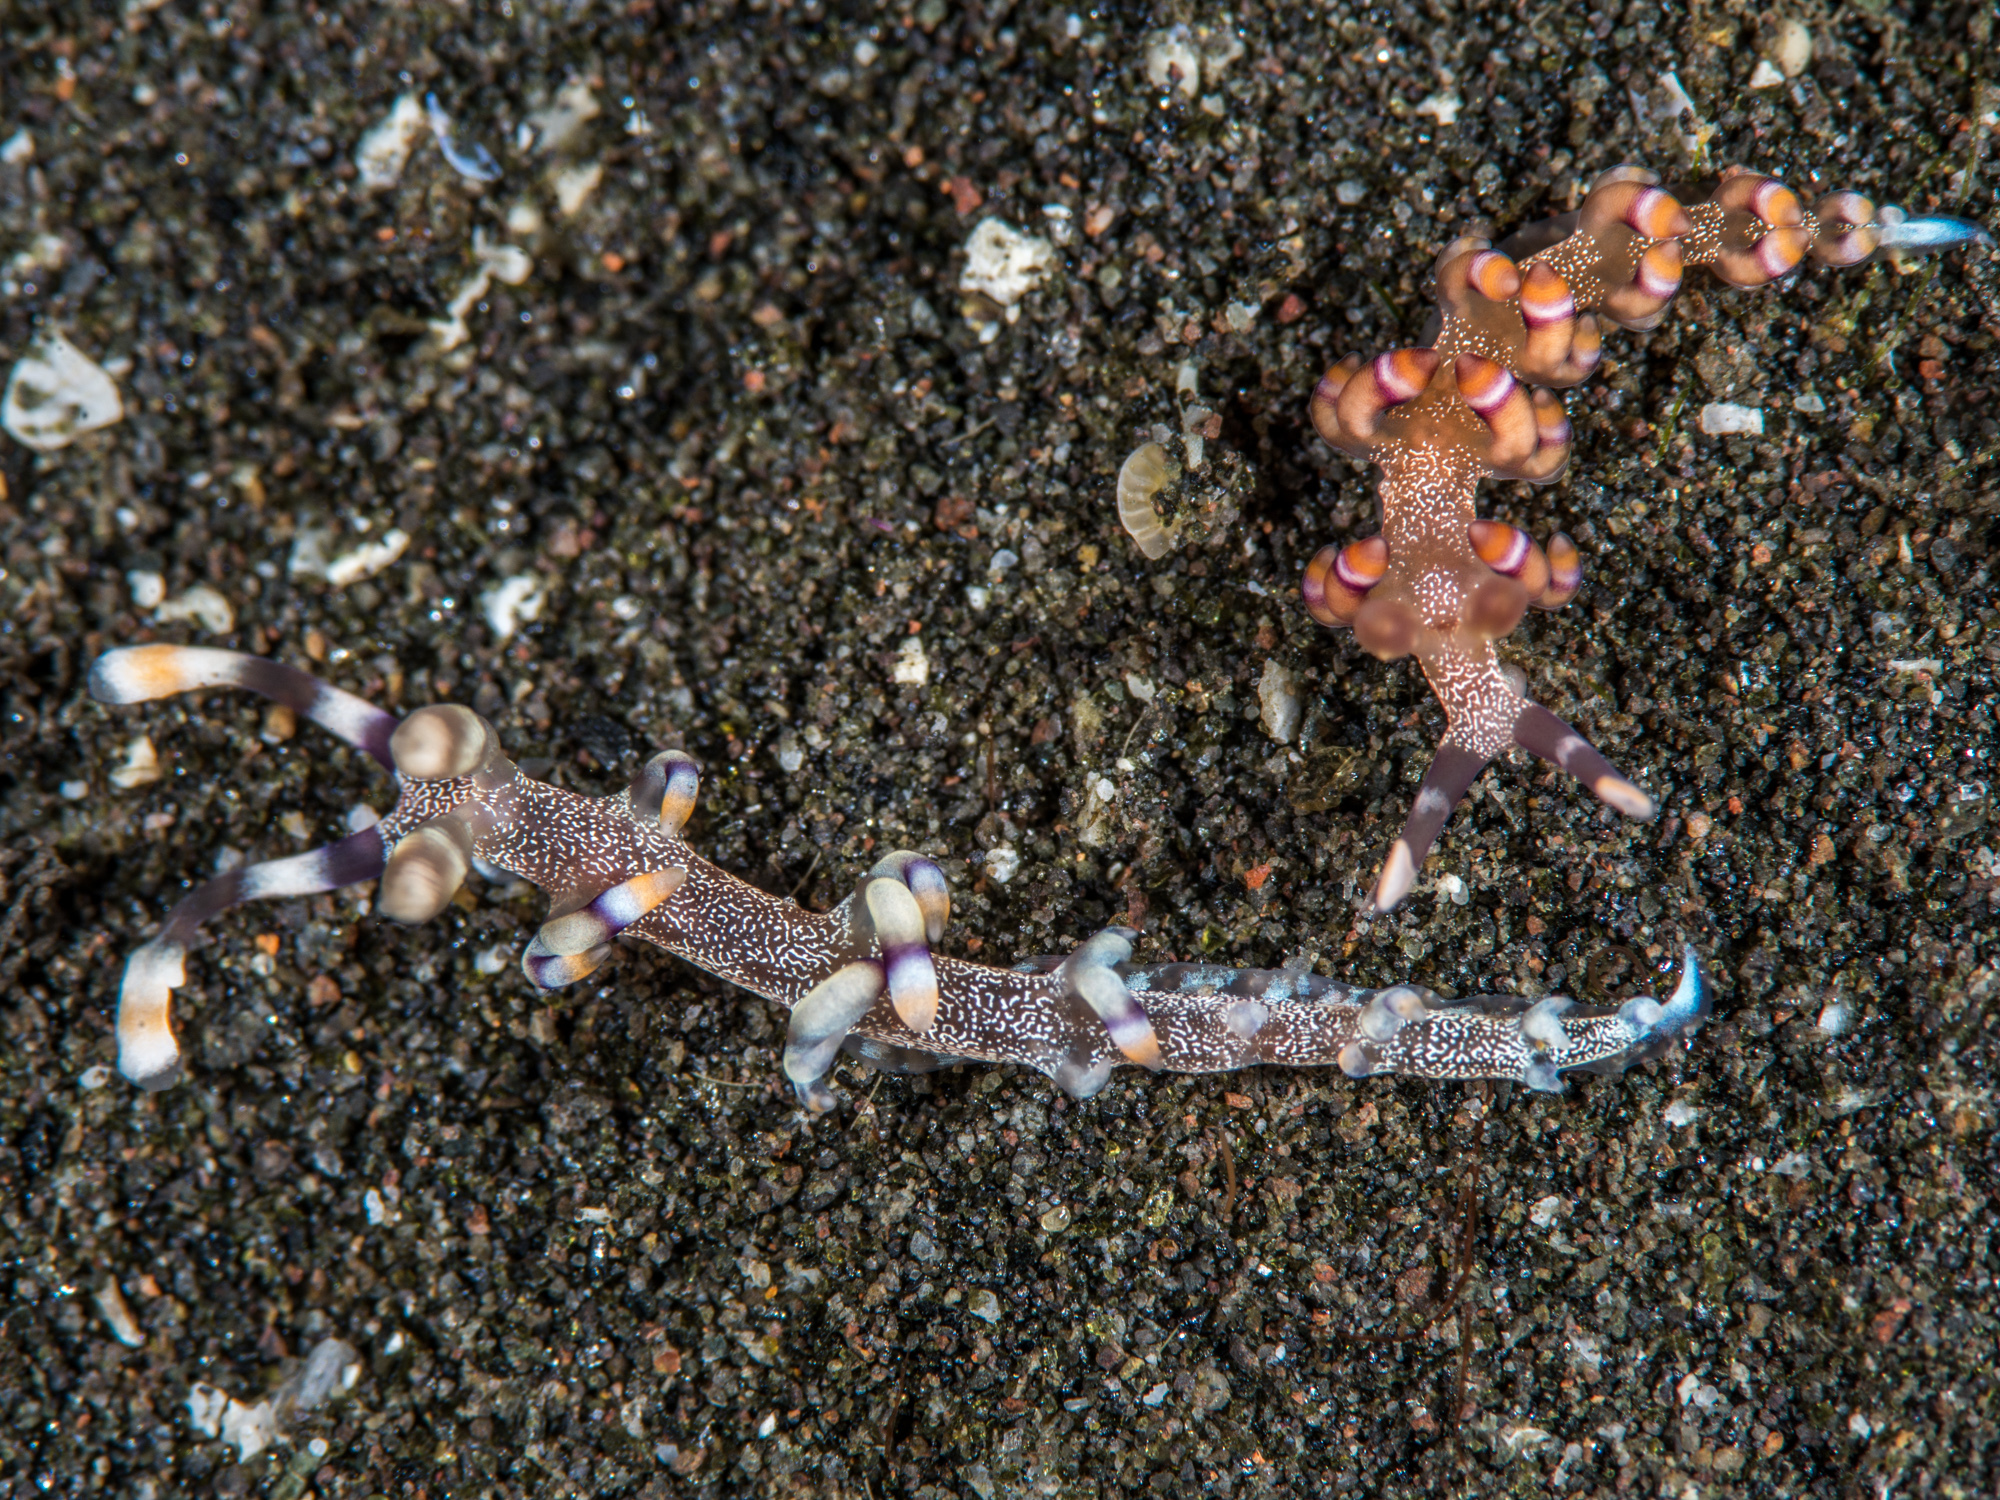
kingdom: Animalia
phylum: Mollusca
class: Gastropoda
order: Nudibranchia
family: Samlidae
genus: Samla
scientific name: Samla riwo
